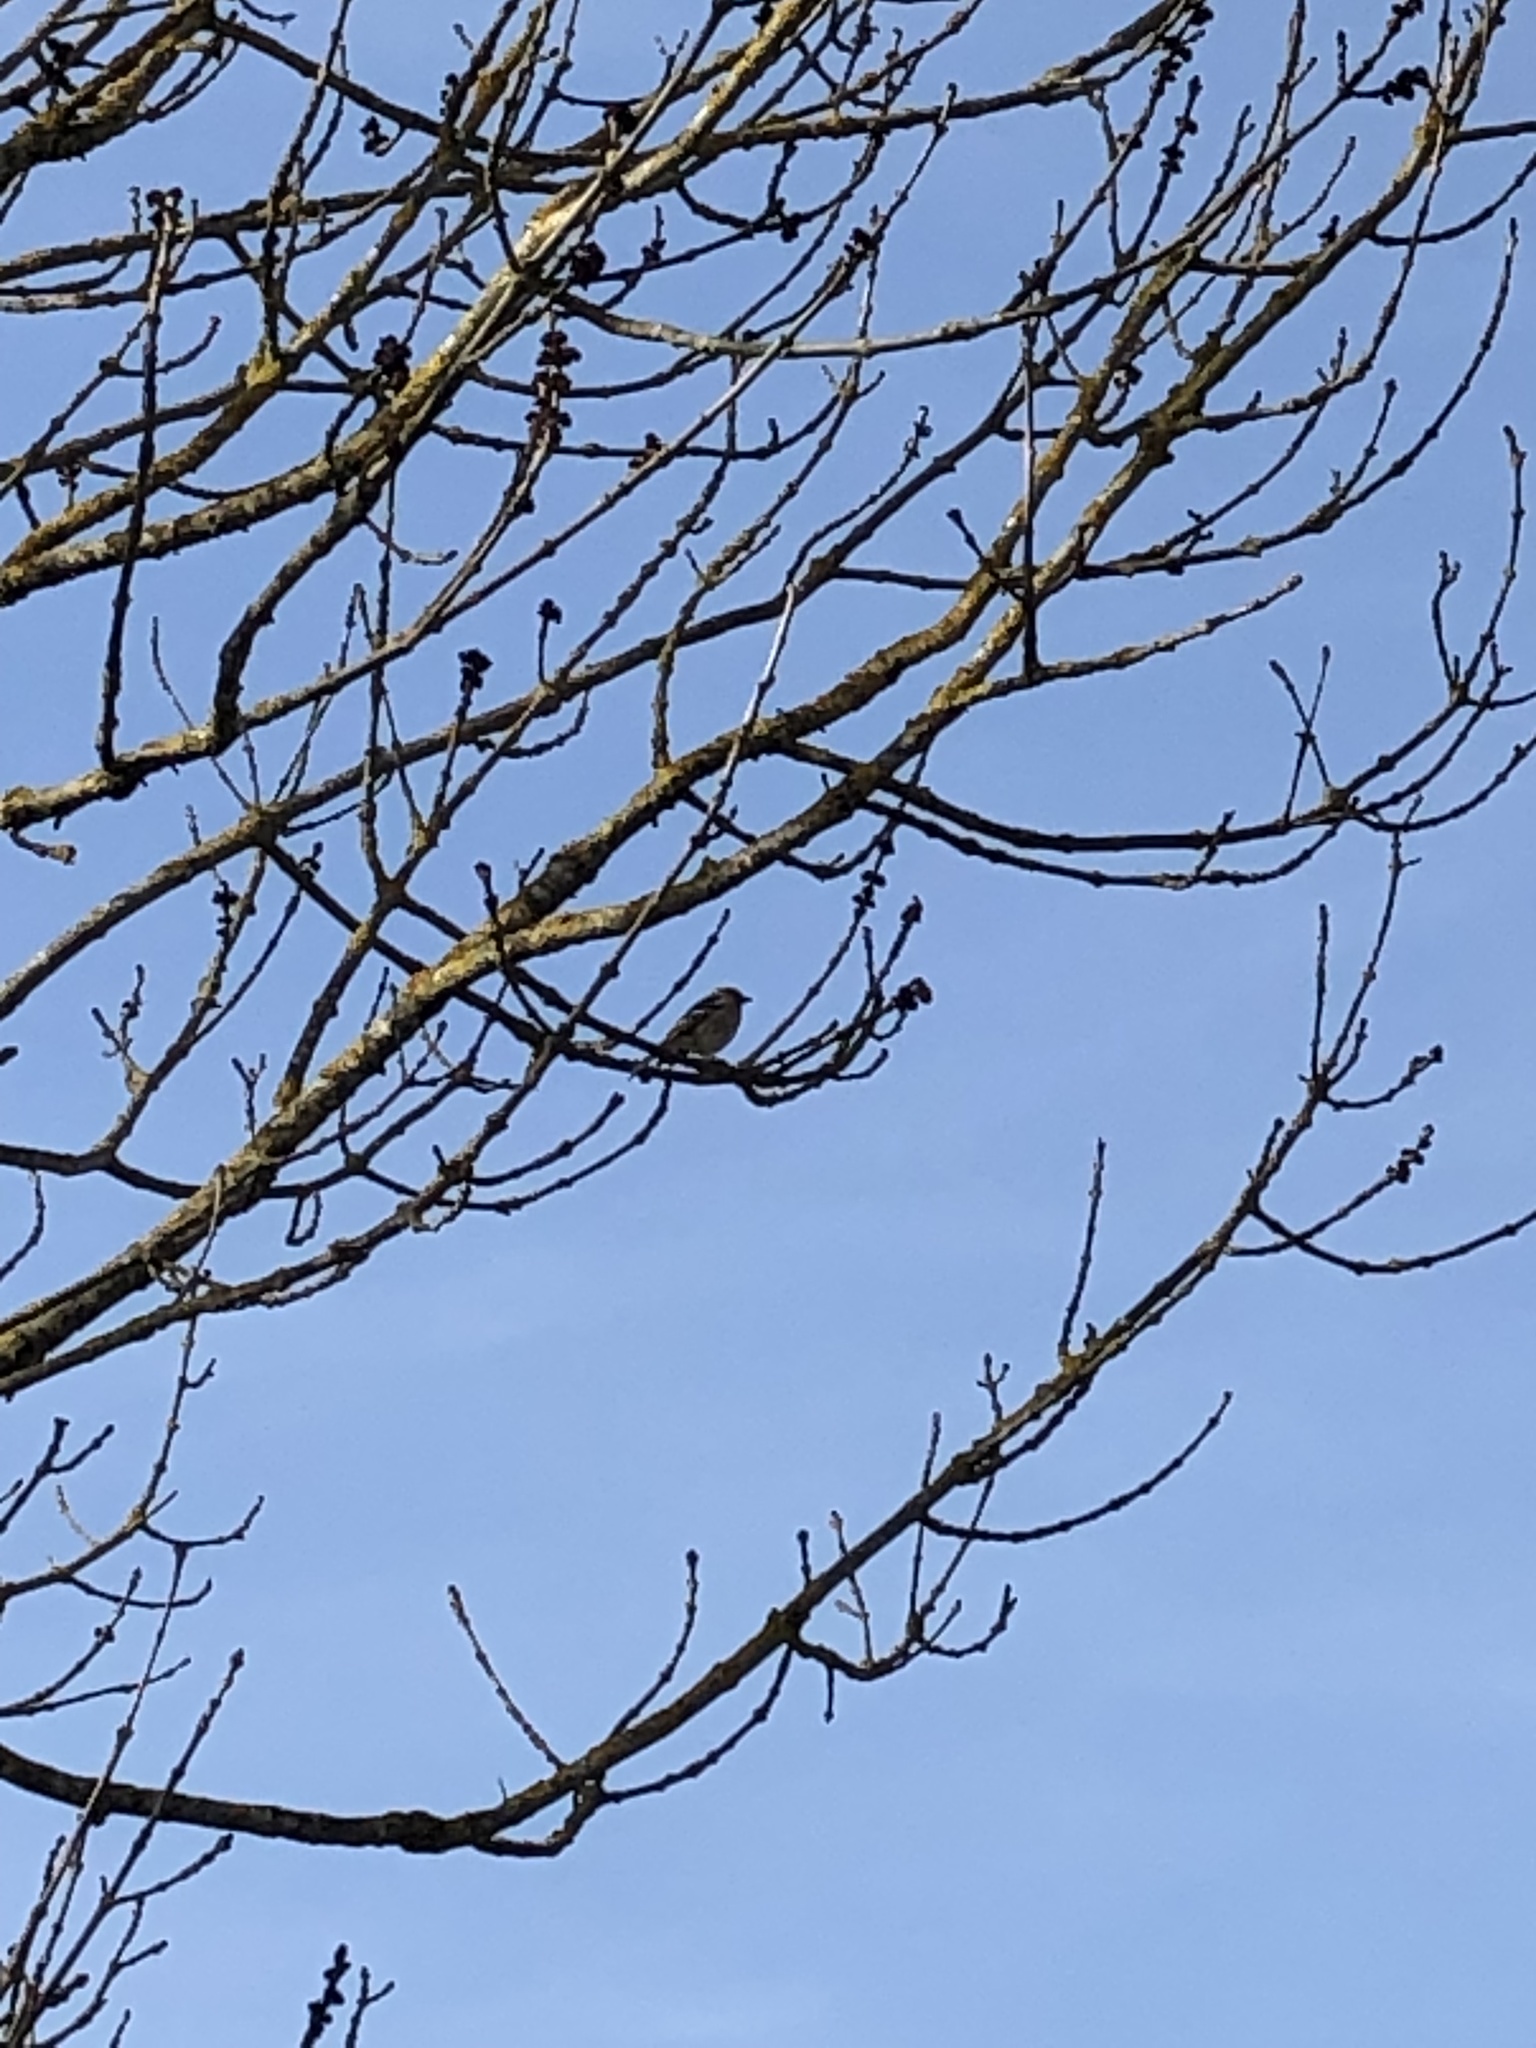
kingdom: Animalia
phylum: Chordata
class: Aves
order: Passeriformes
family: Fringillidae
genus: Fringilla
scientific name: Fringilla coelebs
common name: Common chaffinch
